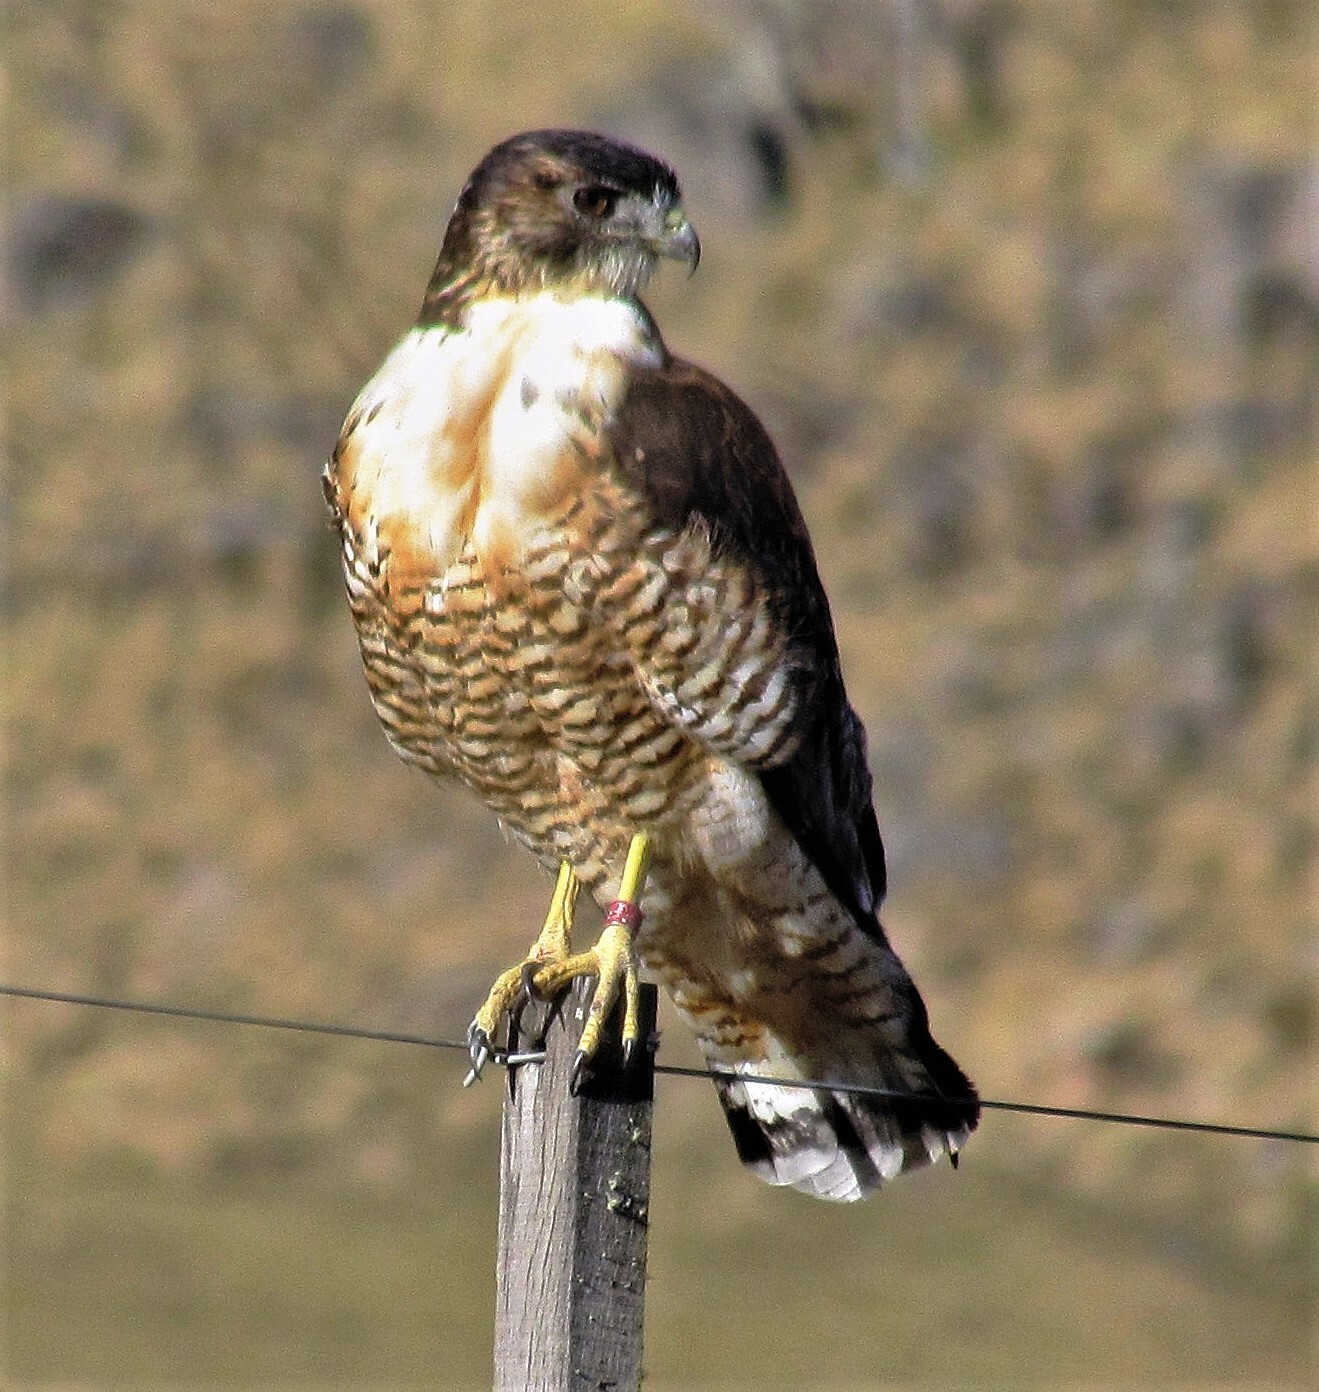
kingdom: Animalia
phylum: Chordata
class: Aves
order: Accipitriformes
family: Accipitridae
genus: Buteo
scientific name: Buteo polyosoma
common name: Variable hawk
